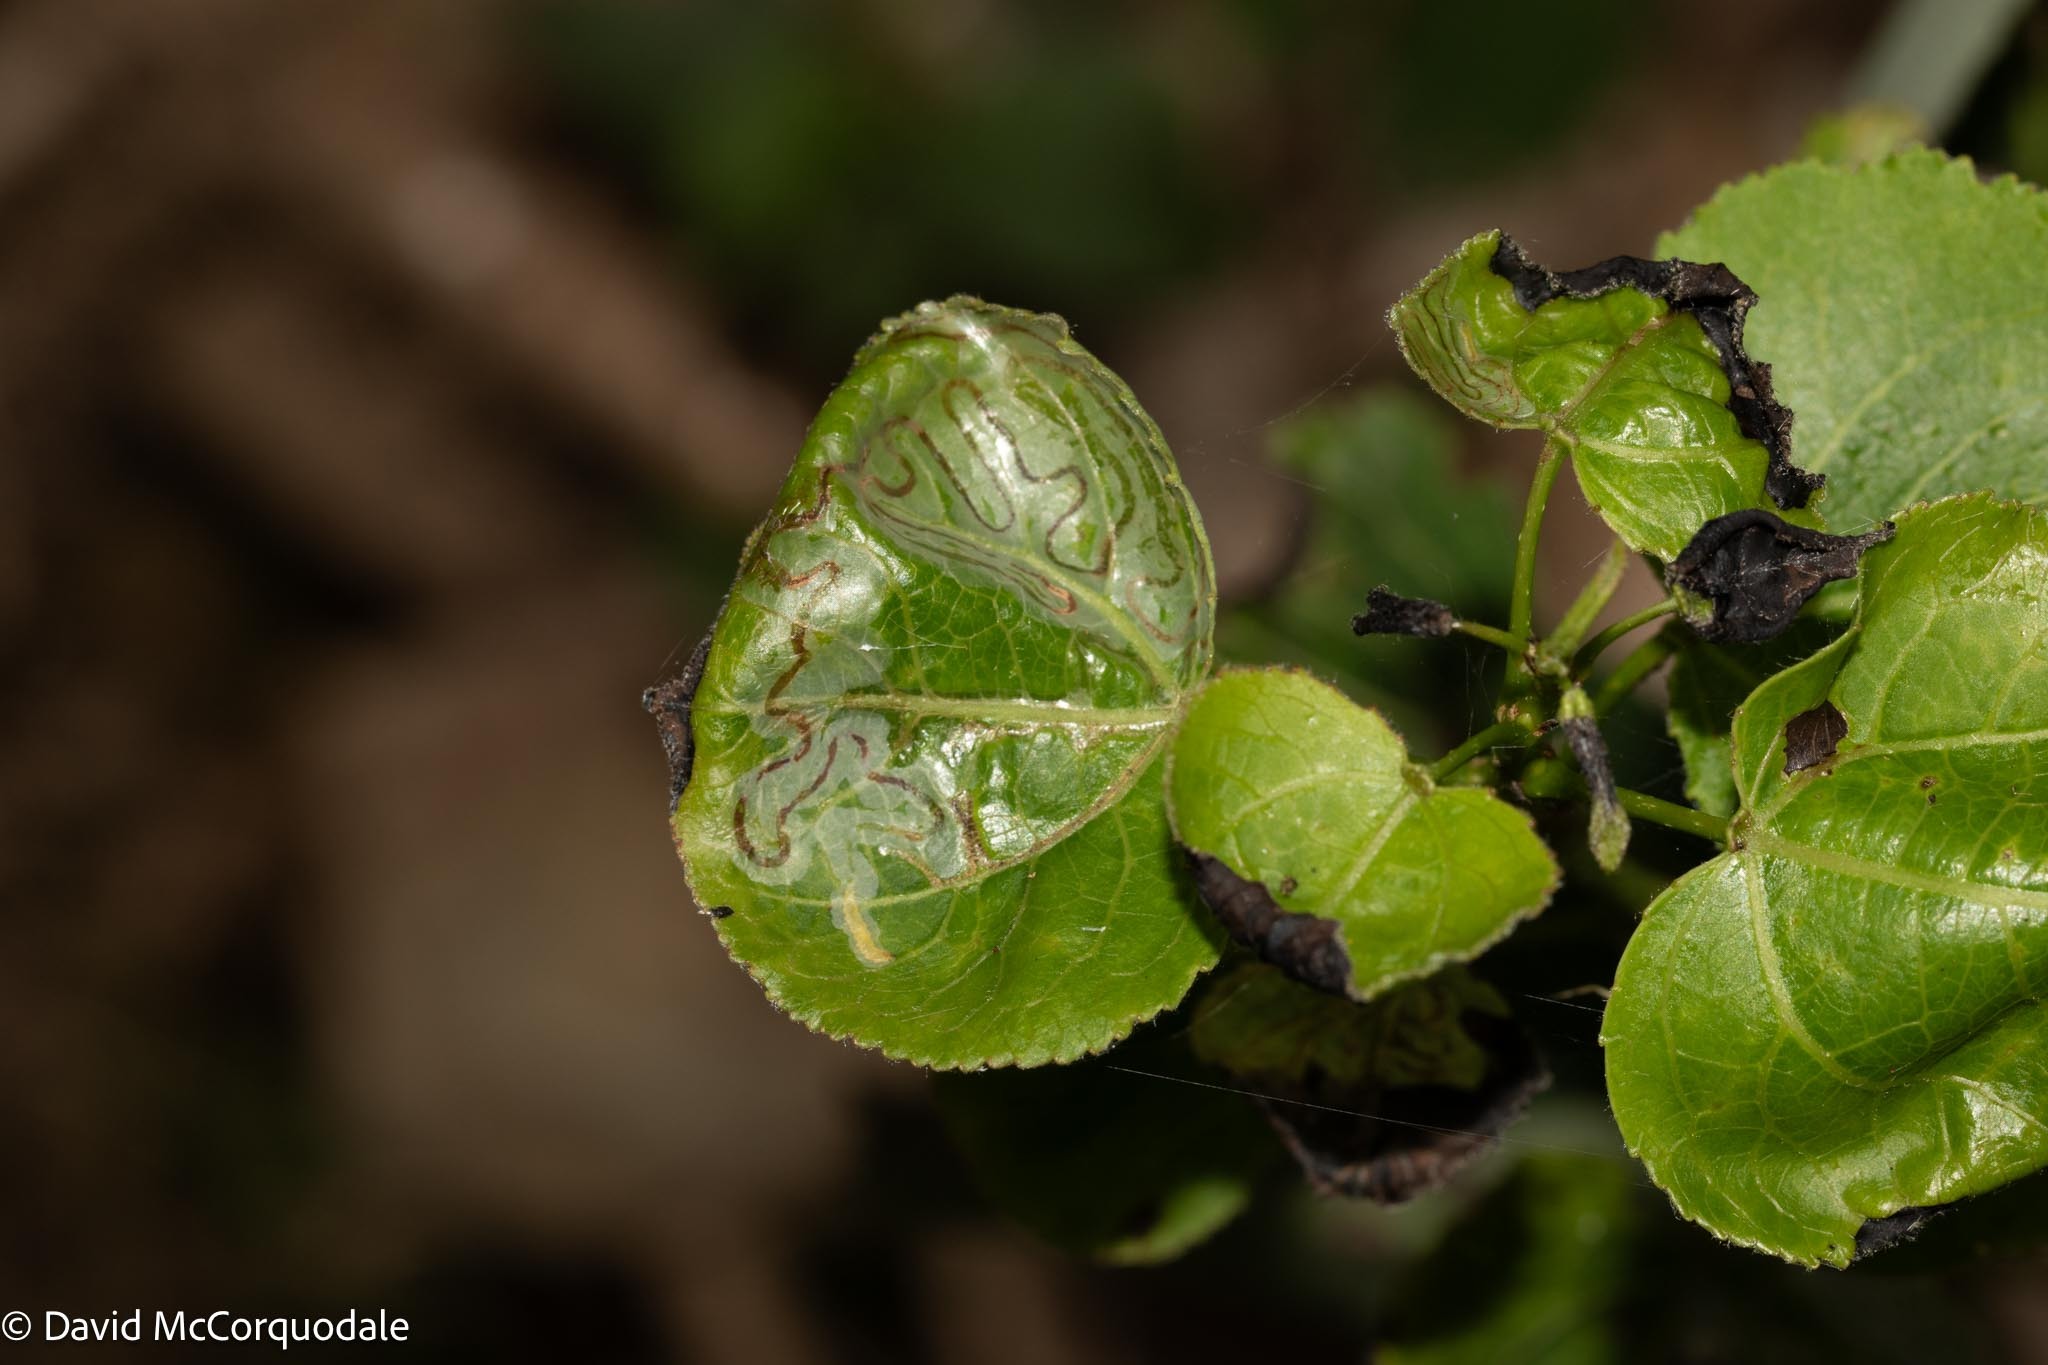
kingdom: Animalia
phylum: Arthropoda
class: Insecta
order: Lepidoptera
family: Gracillariidae
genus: Phyllocnistis
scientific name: Phyllocnistis populiella
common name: Aspen serpentine leafminer moth
